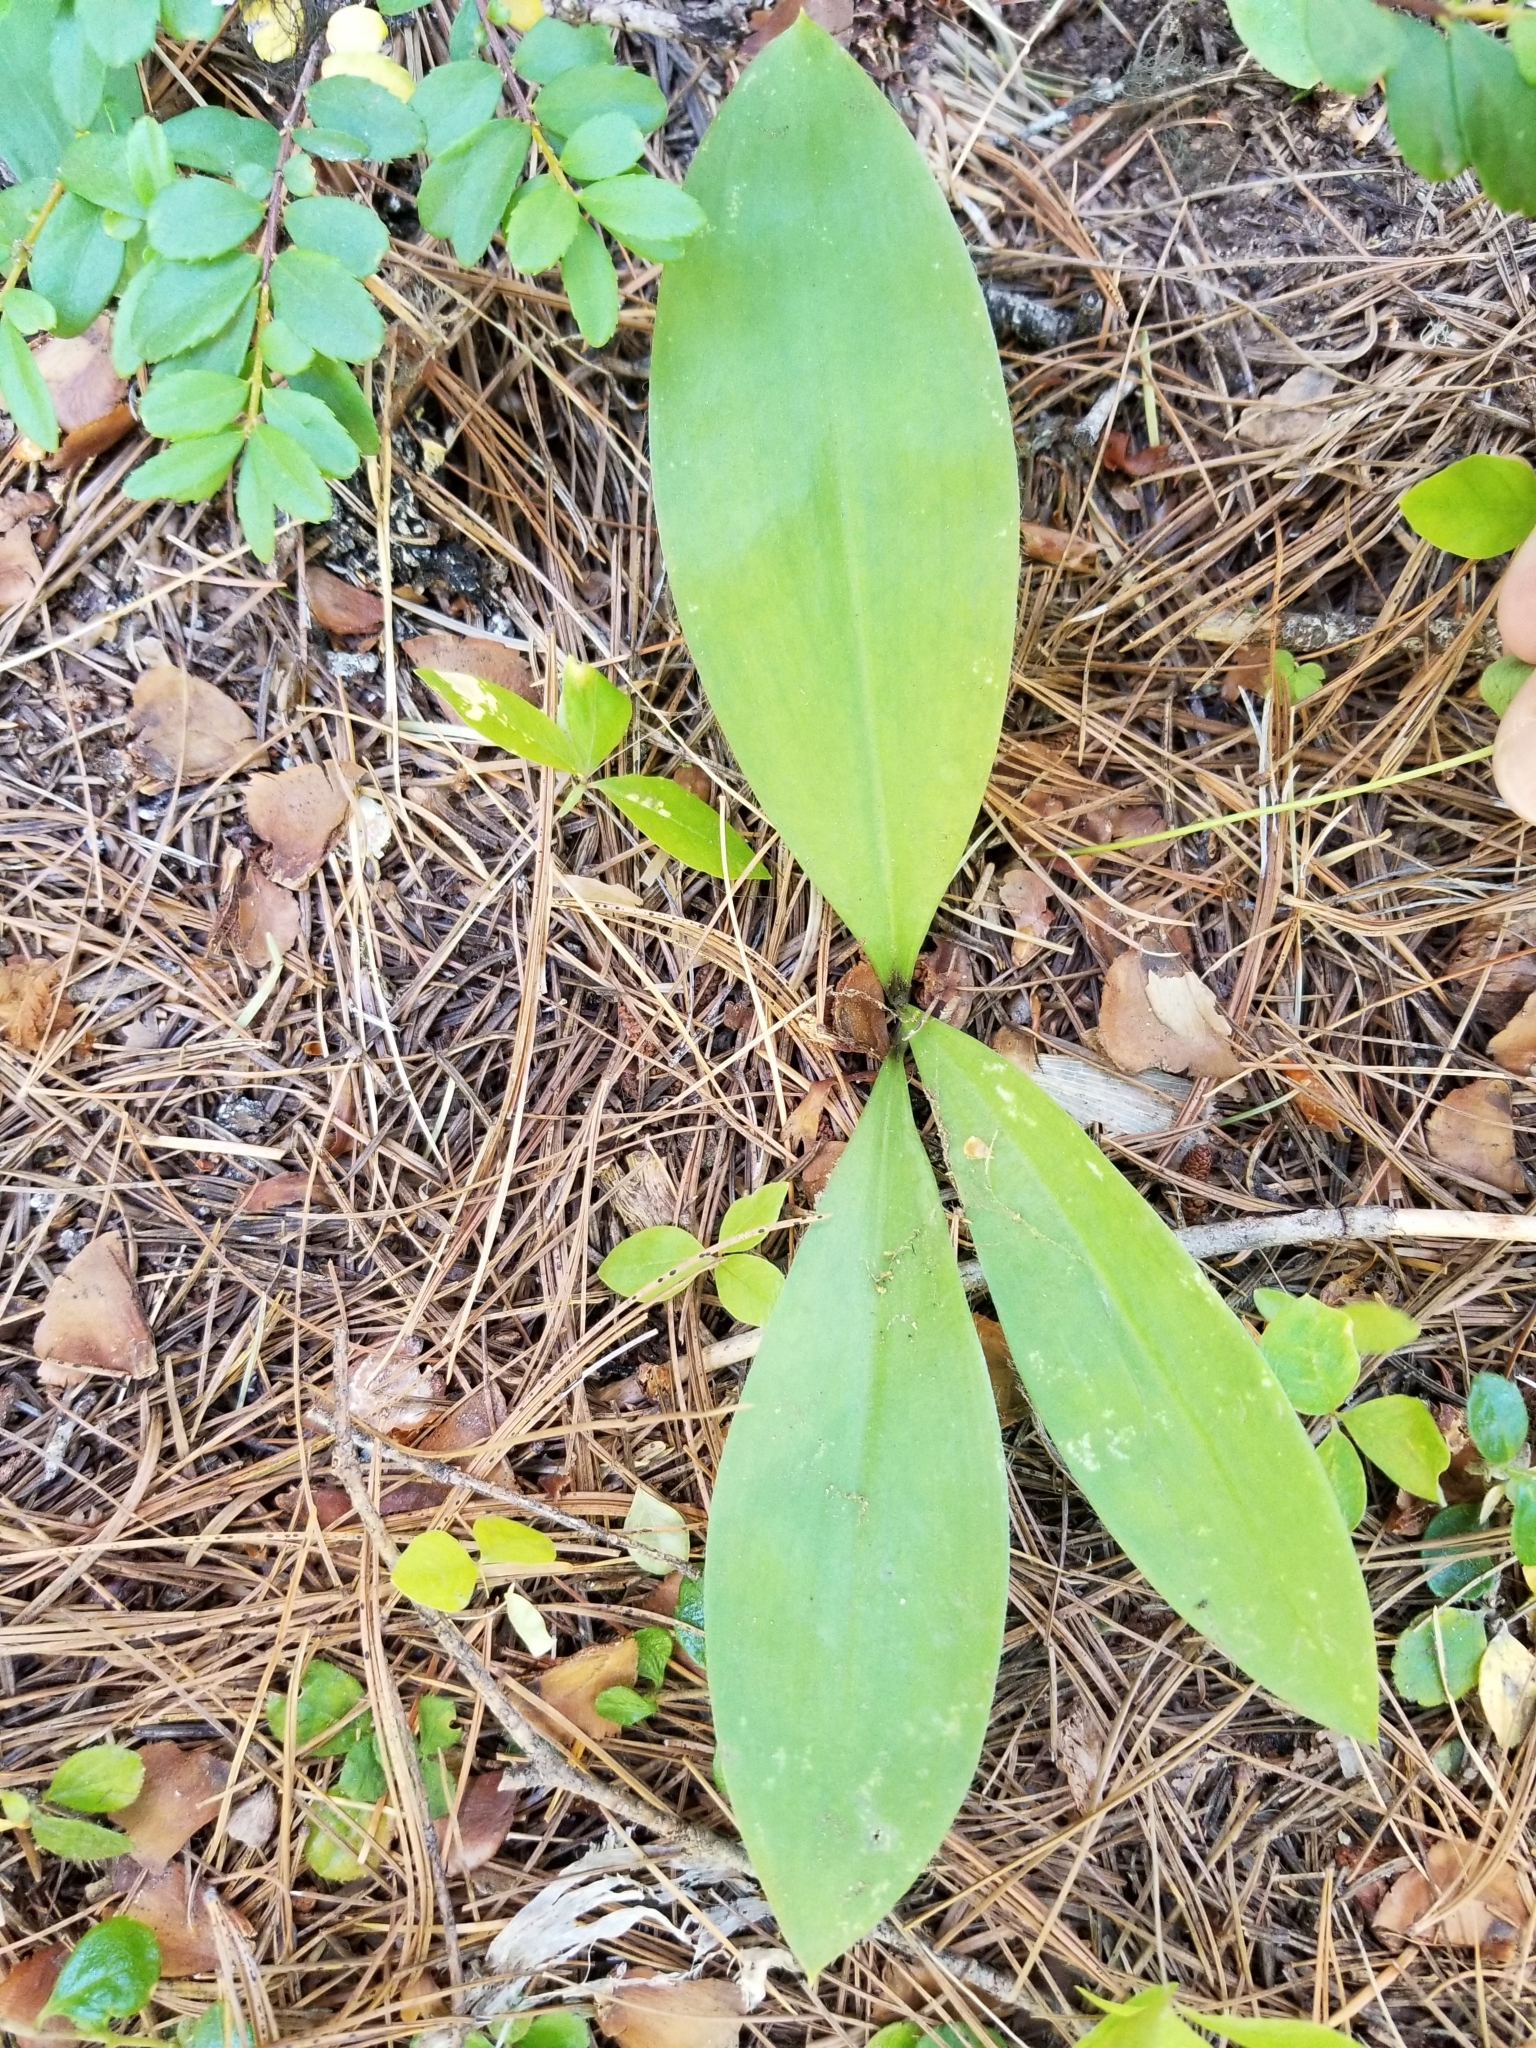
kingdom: Plantae
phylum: Tracheophyta
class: Liliopsida
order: Liliales
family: Liliaceae
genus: Clintonia
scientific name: Clintonia uniflora
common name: Queen's cup
